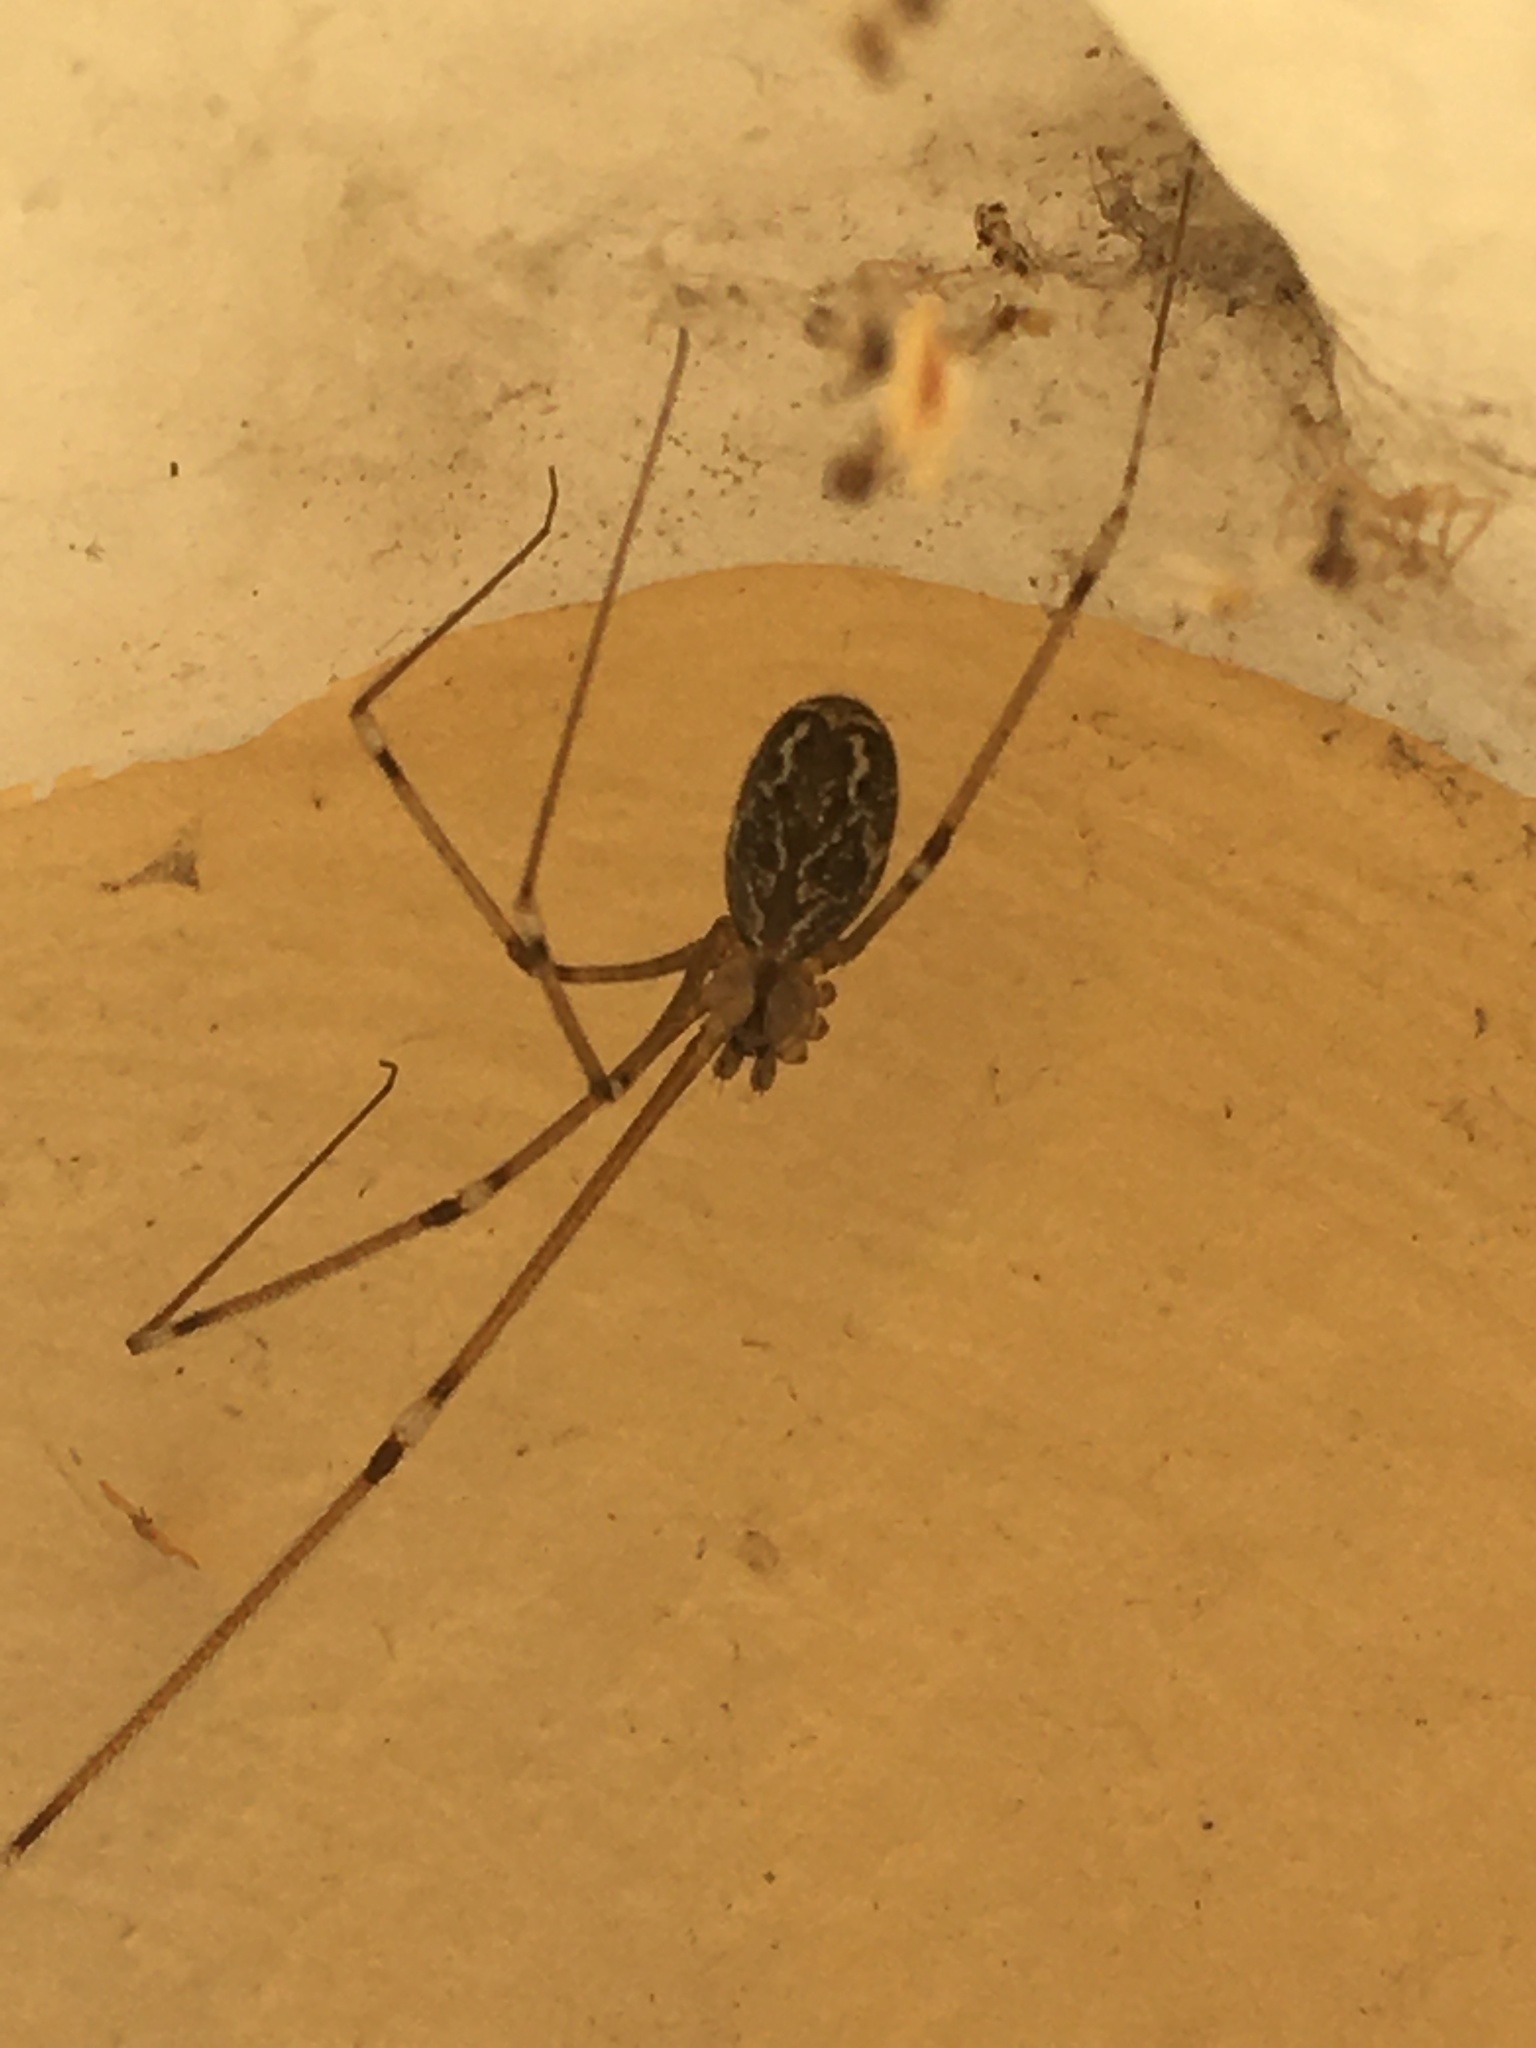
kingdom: Animalia
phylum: Arthropoda
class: Arachnida
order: Araneae
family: Pholcidae
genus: Holocnemus
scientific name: Holocnemus pluchei
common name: Marbled cellar spider
